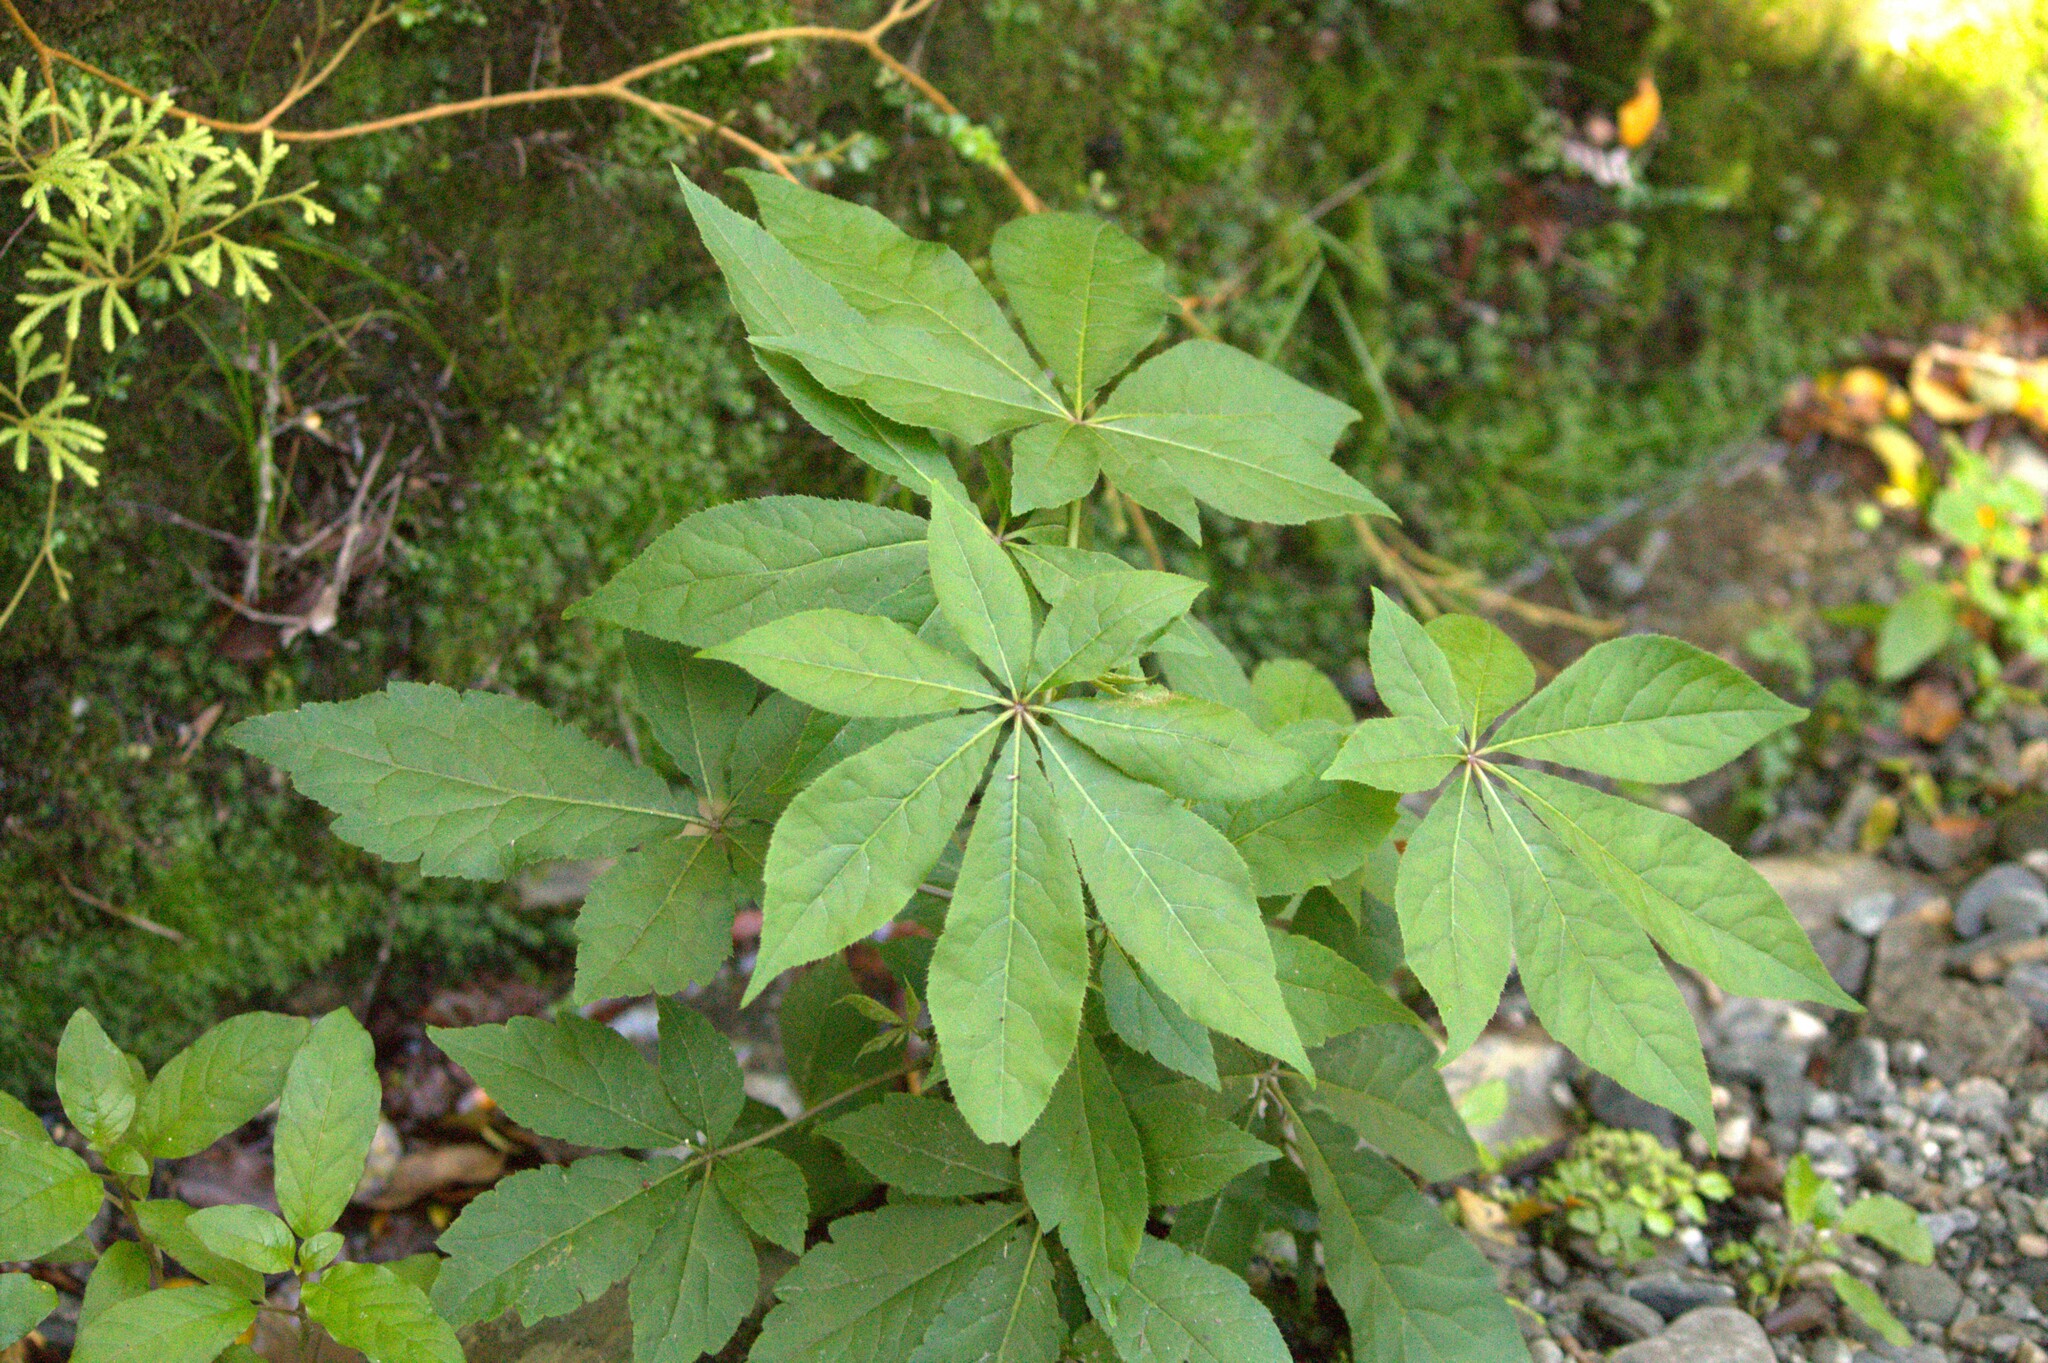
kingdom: Plantae
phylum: Tracheophyta
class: Magnoliopsida
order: Apiales
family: Araliaceae
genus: Schefflera
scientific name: Schefflera digitata
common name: Pate
